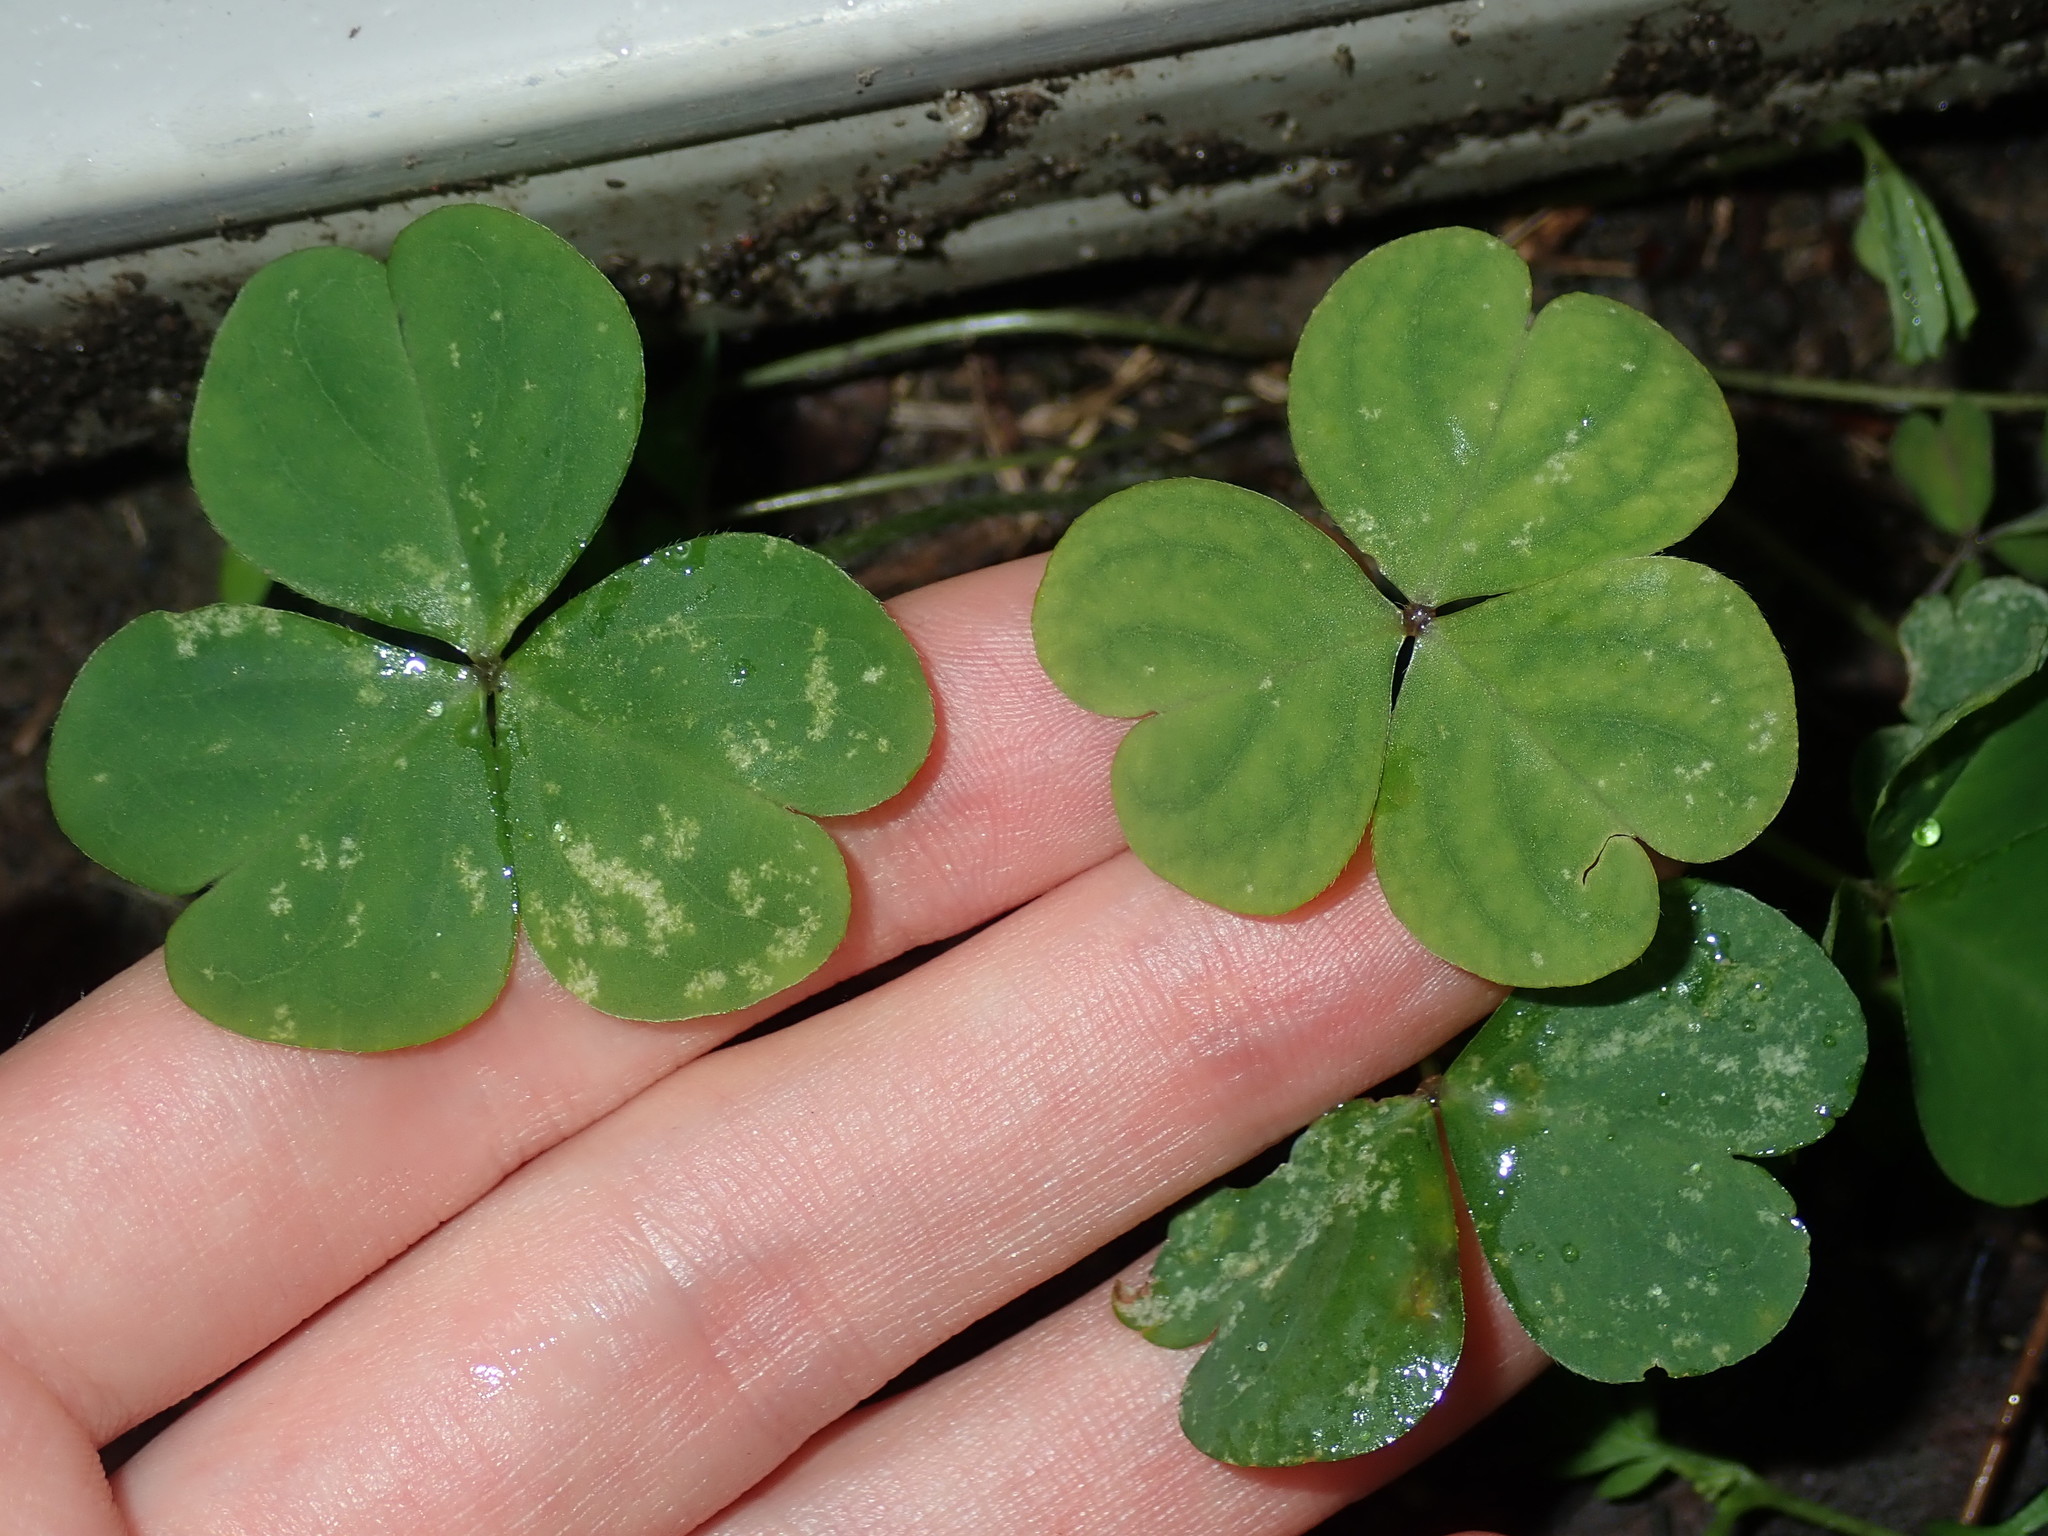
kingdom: Plantae
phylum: Tracheophyta
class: Magnoliopsida
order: Oxalidales
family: Oxalidaceae
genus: Oxalis
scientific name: Oxalis debilis
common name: Large-flowered pink-sorrel
